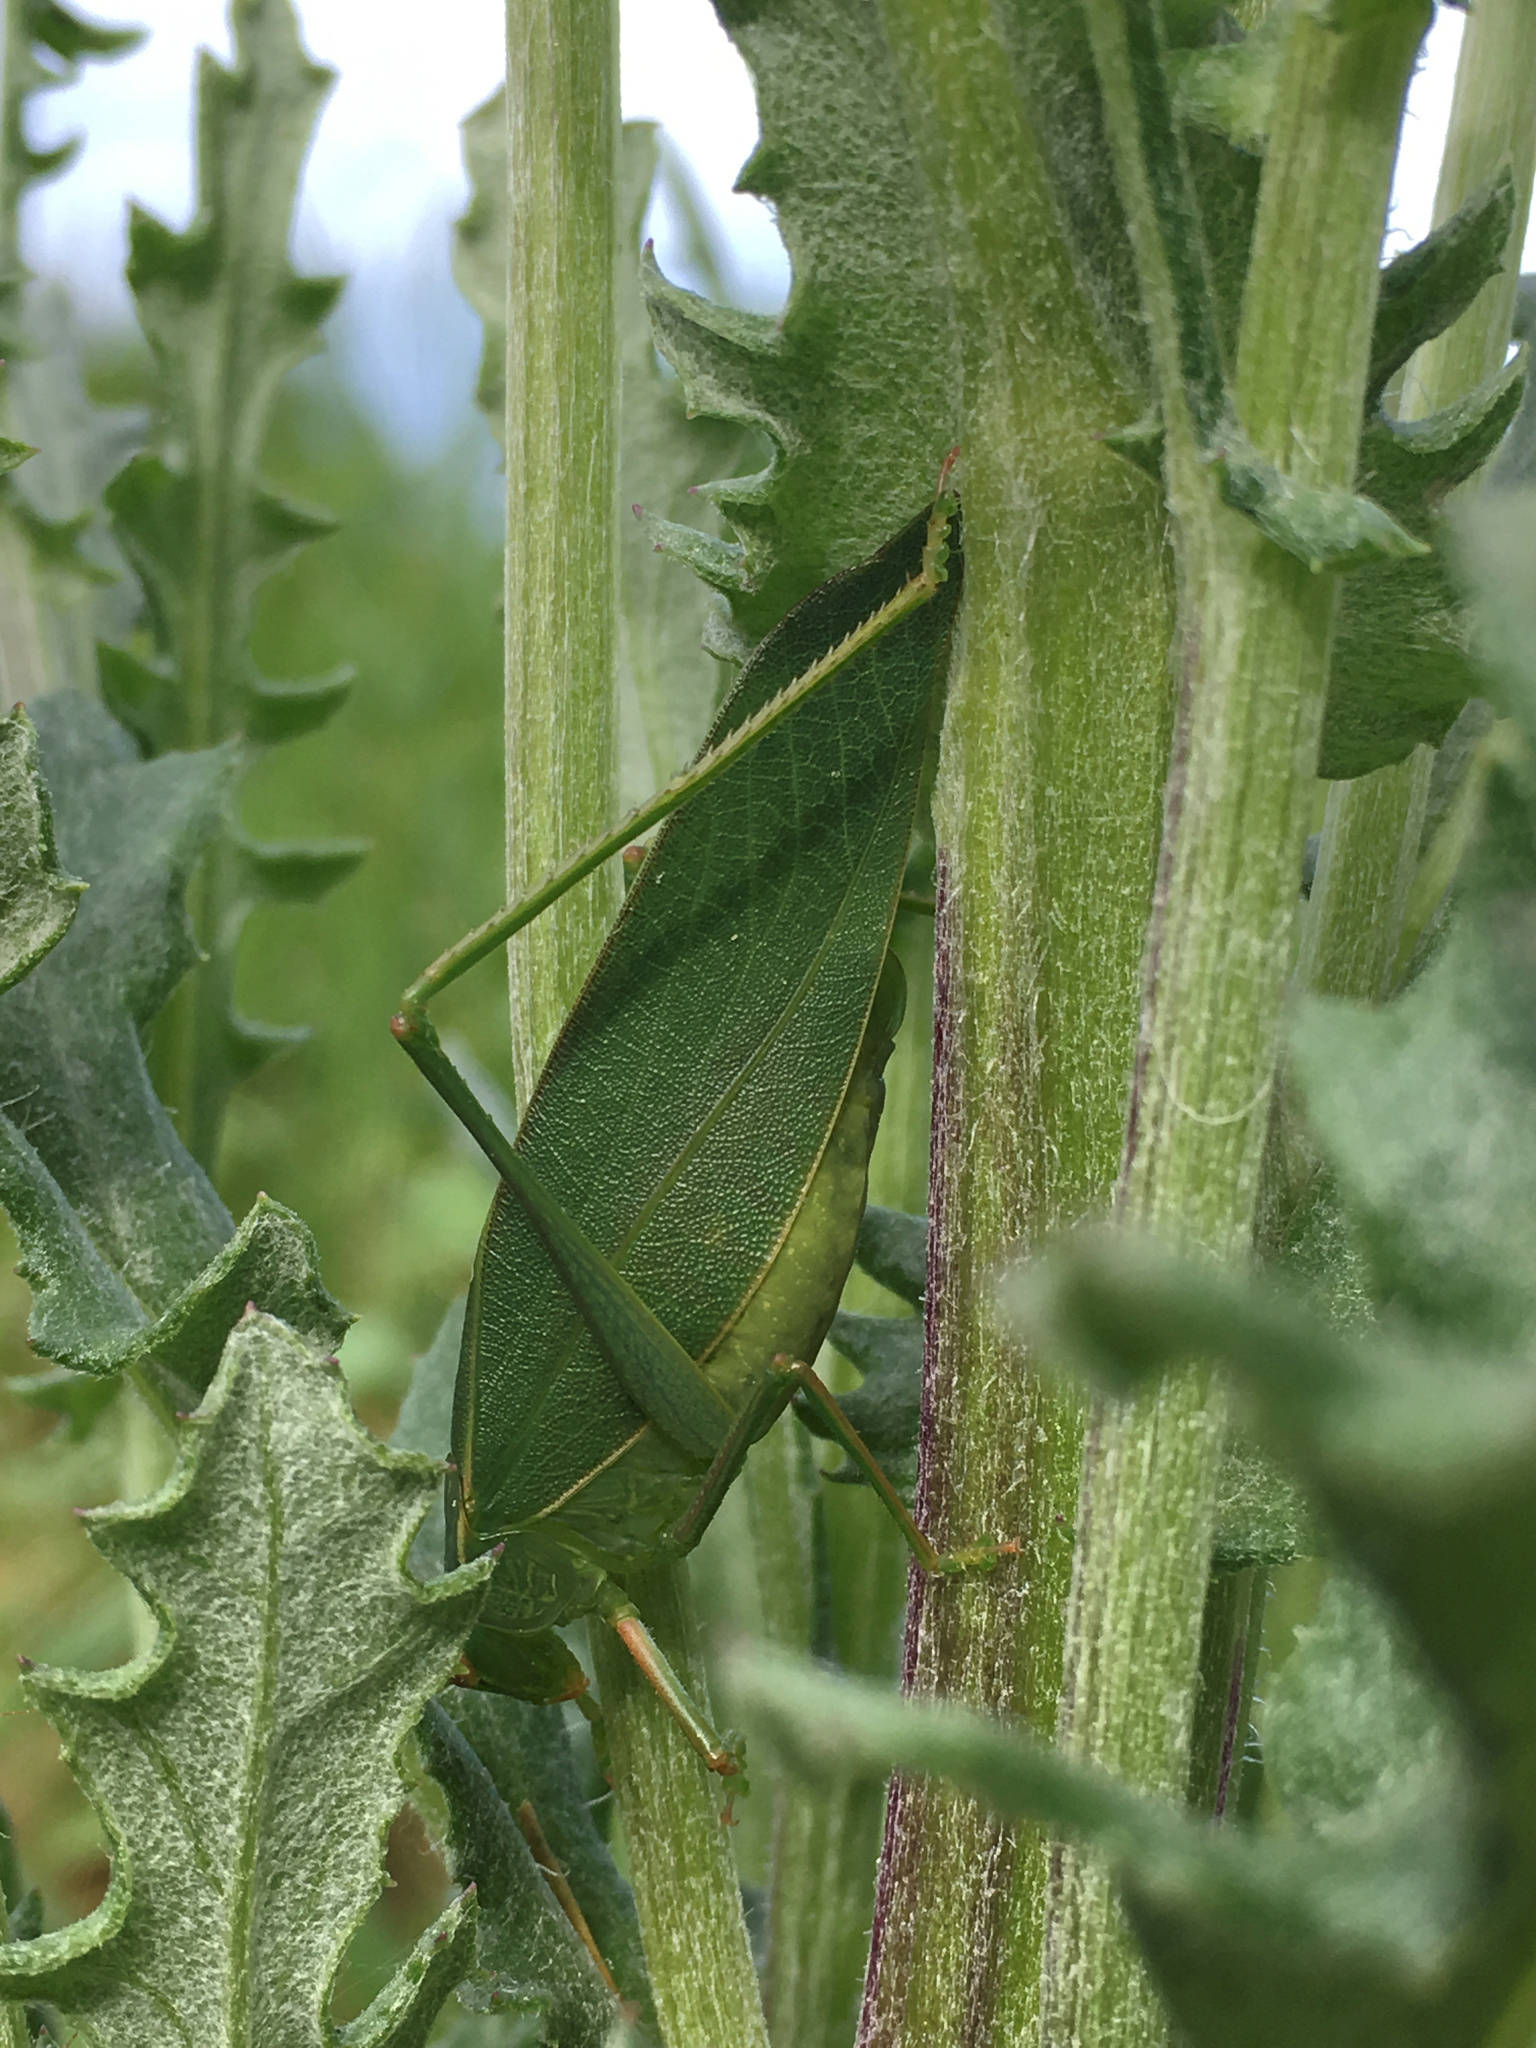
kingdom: Animalia
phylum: Arthropoda
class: Insecta
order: Orthoptera
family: Tettigoniidae
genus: Caedicia
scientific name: Caedicia simplex
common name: Common garden katydid
